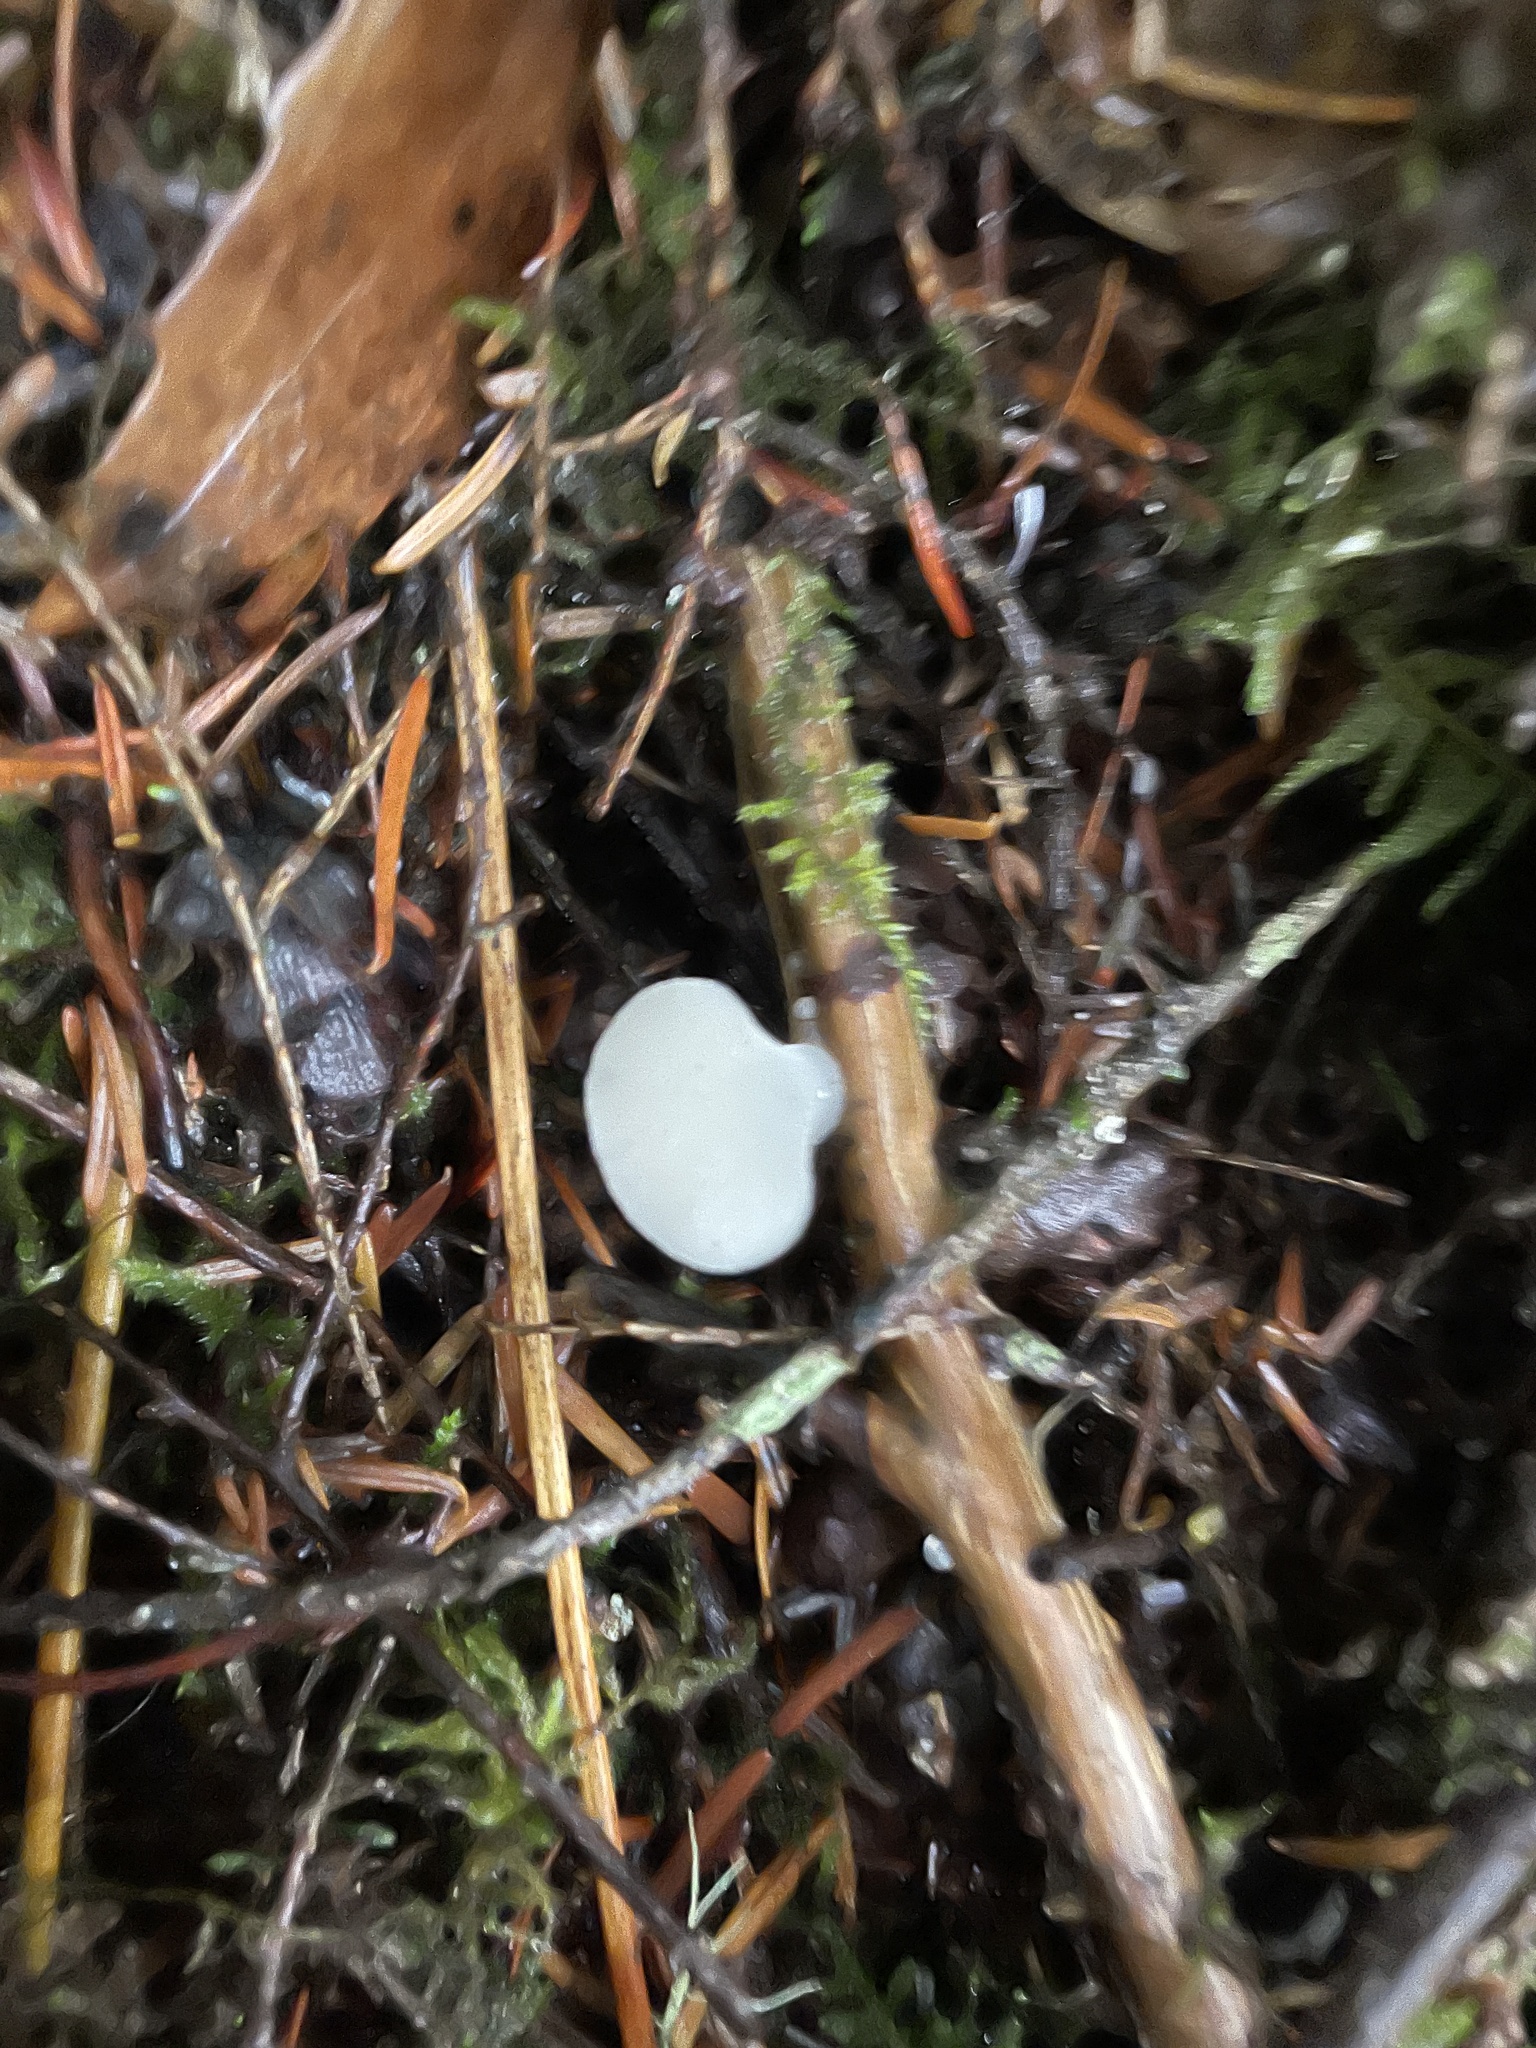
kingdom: Fungi
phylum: Basidiomycota
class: Agaricomycetes
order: Auriculariales
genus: Pseudohydnum
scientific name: Pseudohydnum gelatinosum
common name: Jelly tongue
